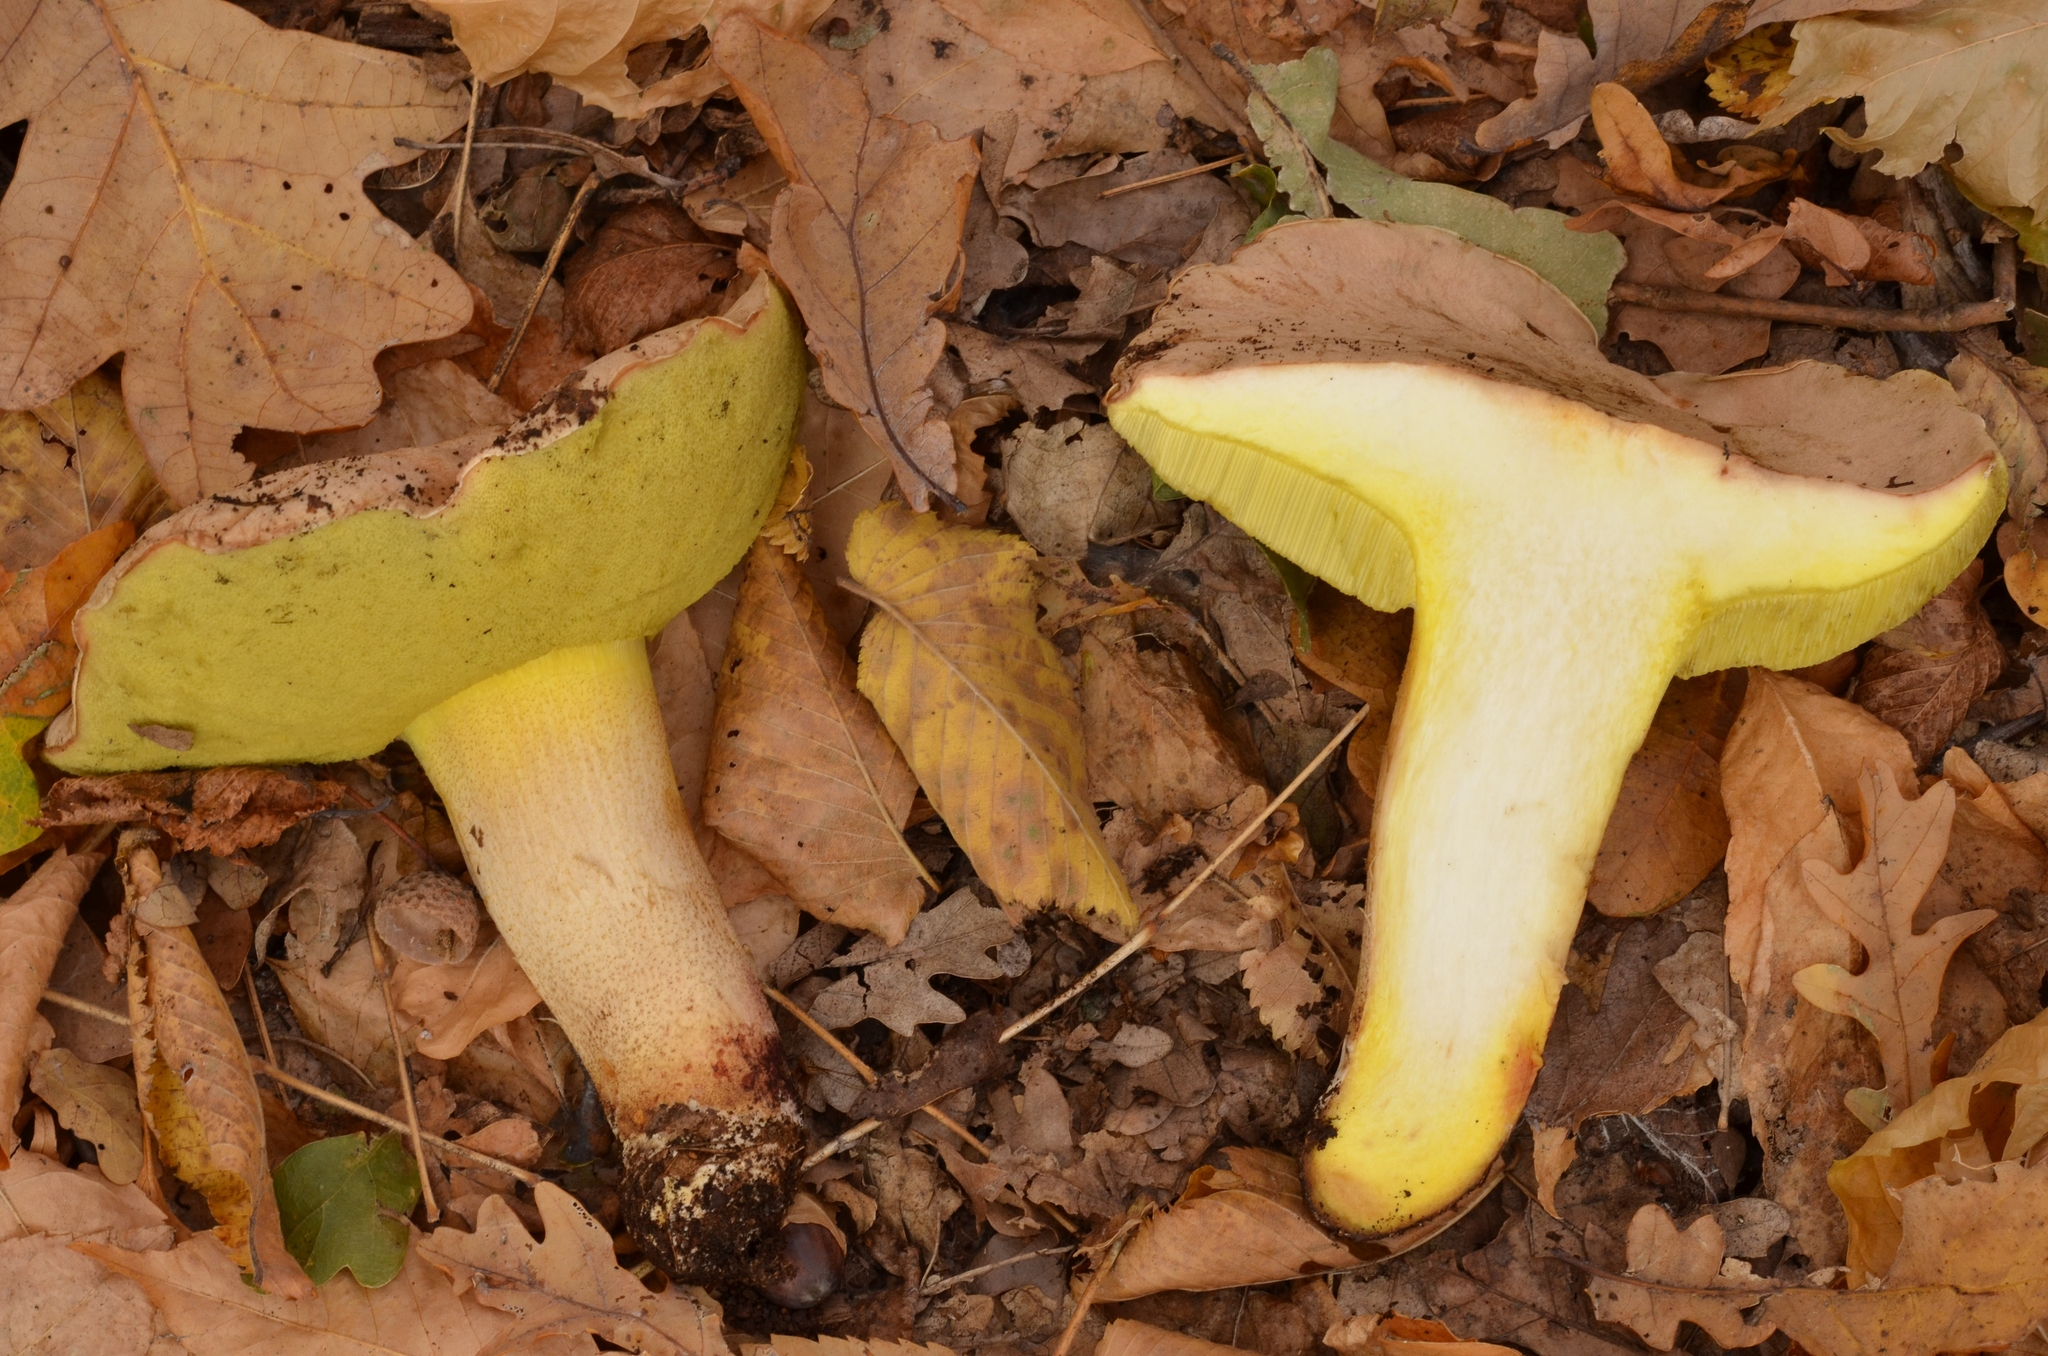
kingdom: Fungi
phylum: Basidiomycota
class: Agaricomycetes
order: Boletales
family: Boletaceae
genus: Hemileccinum
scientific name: Hemileccinum impolitum
